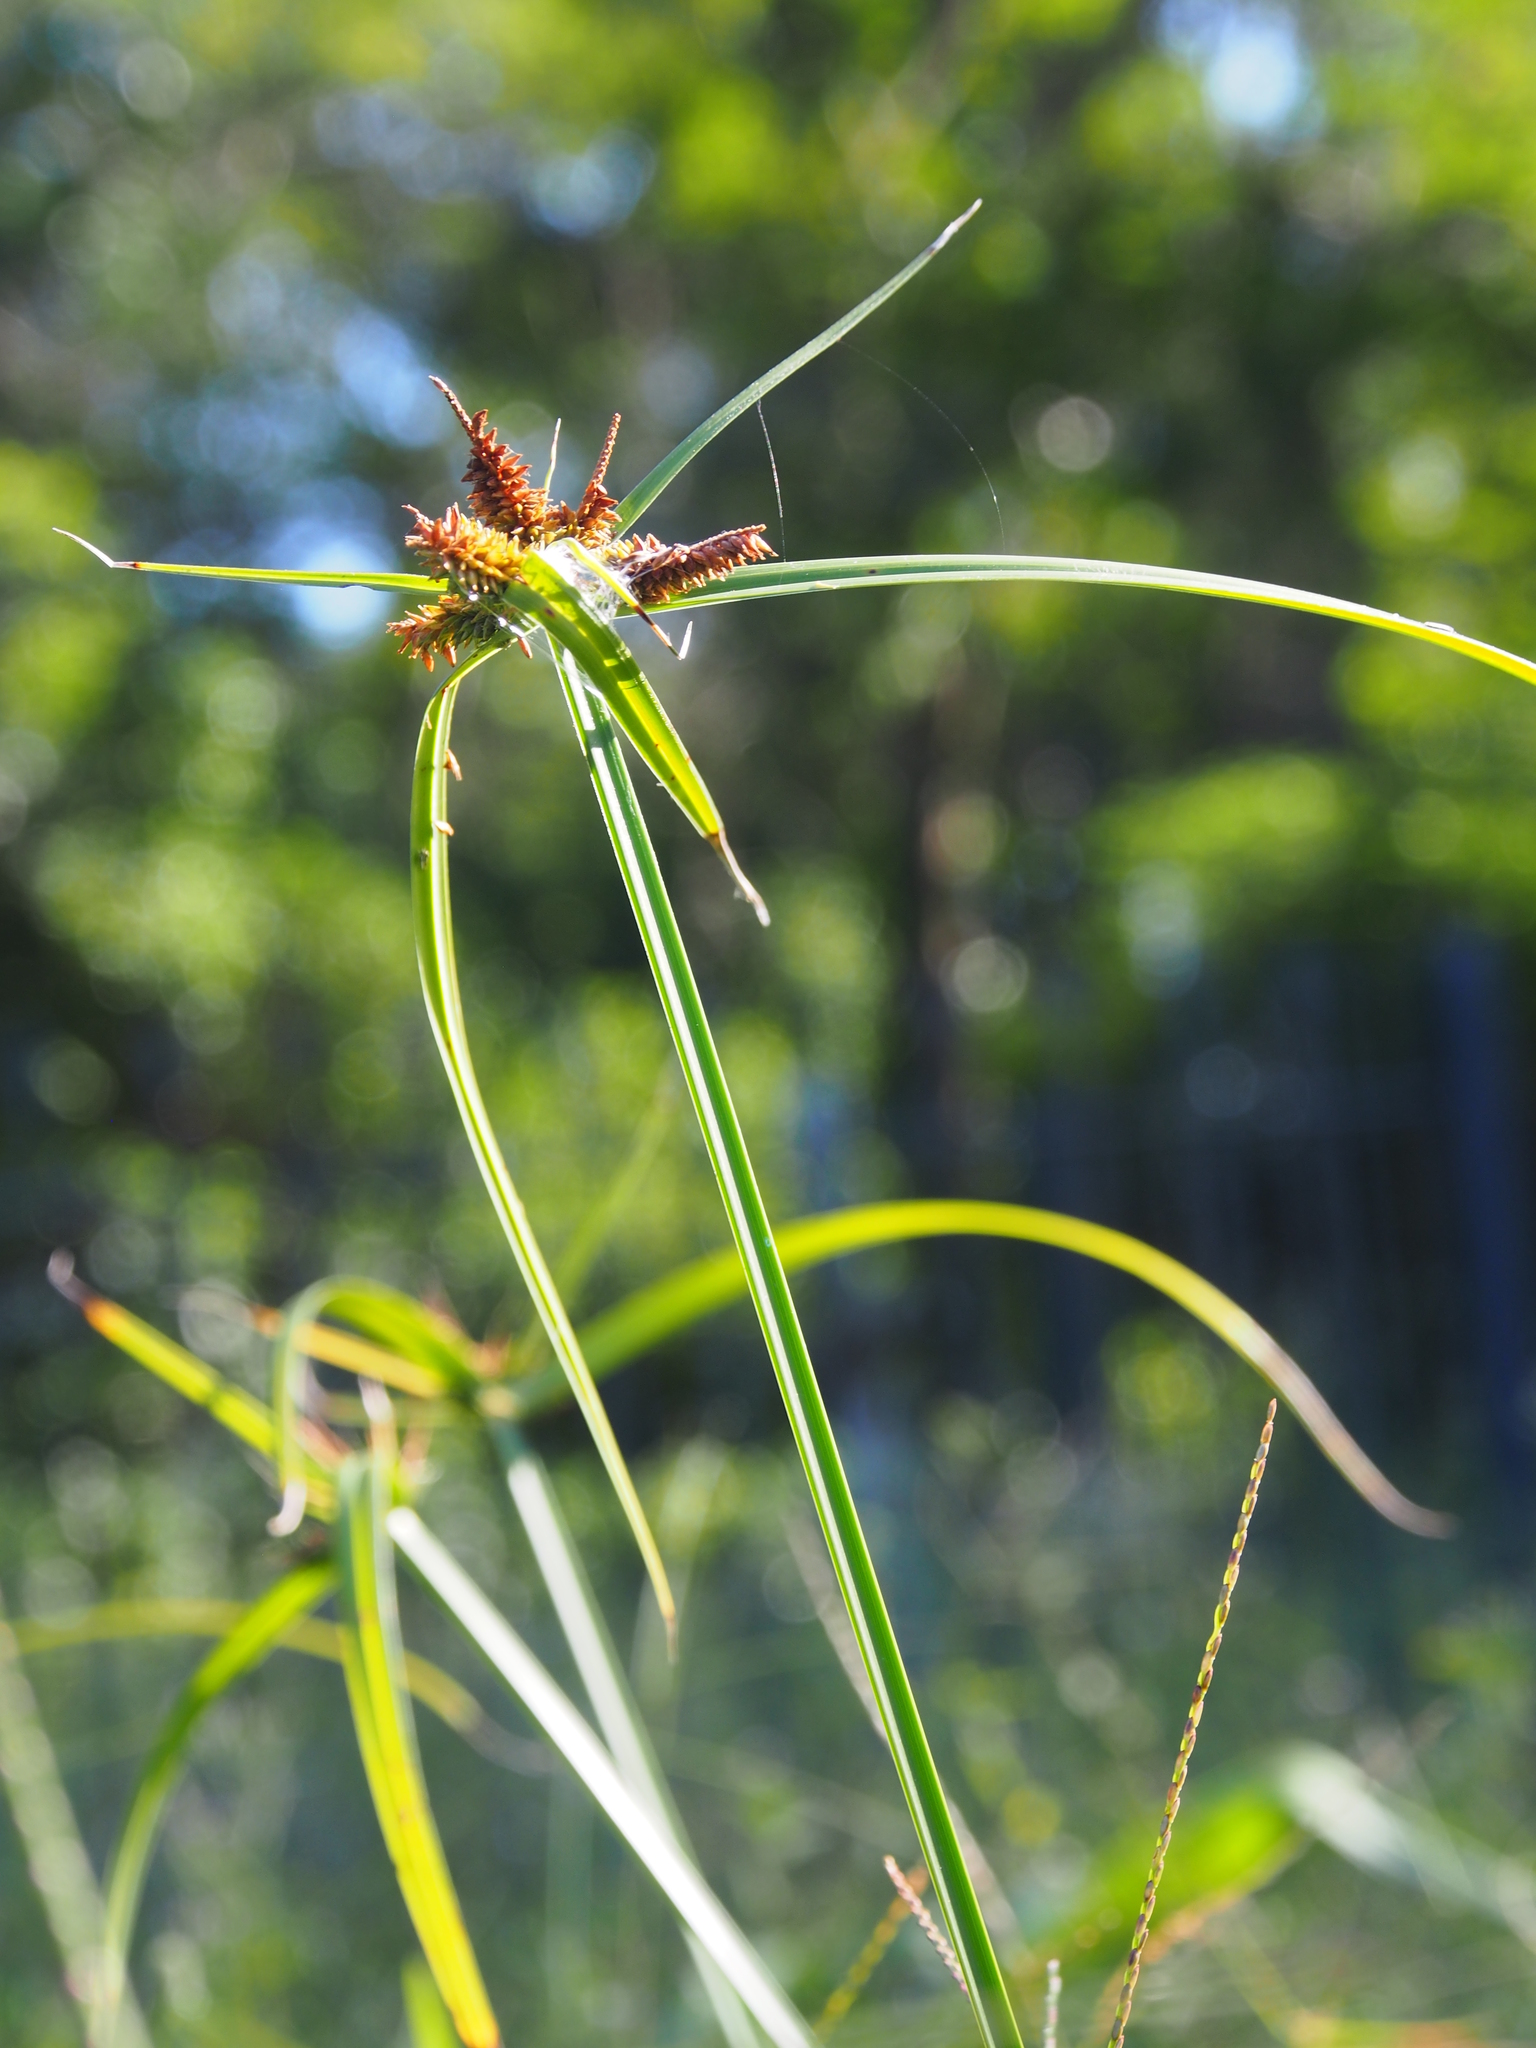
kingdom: Plantae
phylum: Tracheophyta
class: Liliopsida
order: Poales
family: Cyperaceae
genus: Cyperus
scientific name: Cyperus aggregatus
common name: Inflatedscale flatsedge
